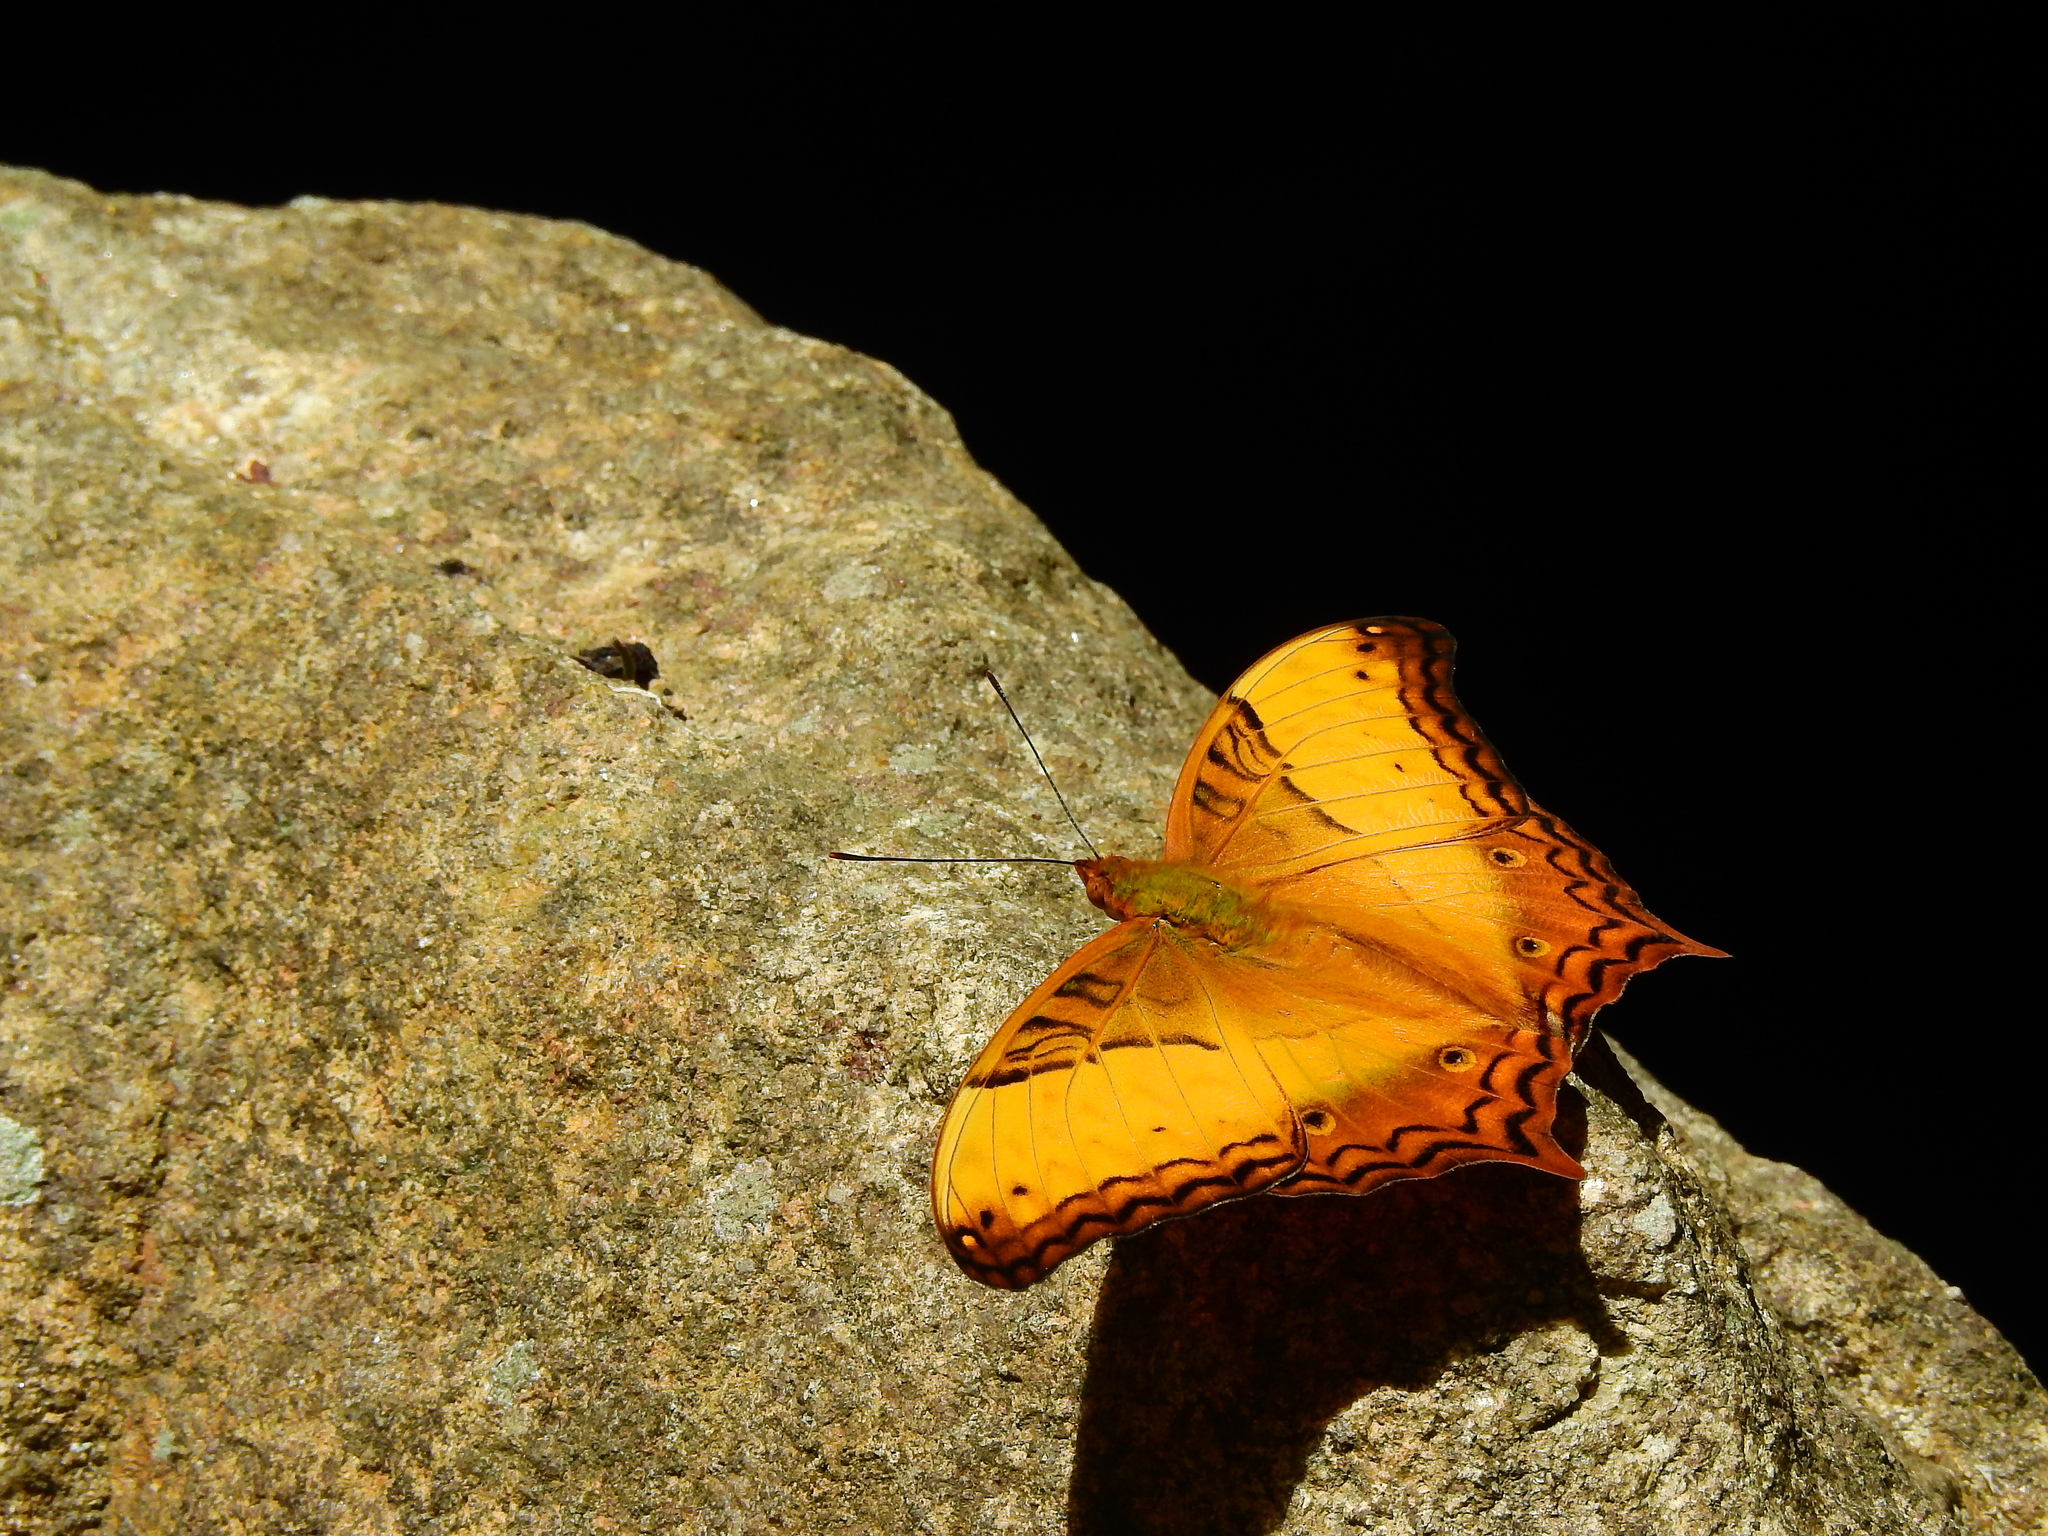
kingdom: Animalia
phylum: Arthropoda
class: Insecta
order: Lepidoptera
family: Nymphalidae
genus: Vindula
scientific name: Vindula erota
